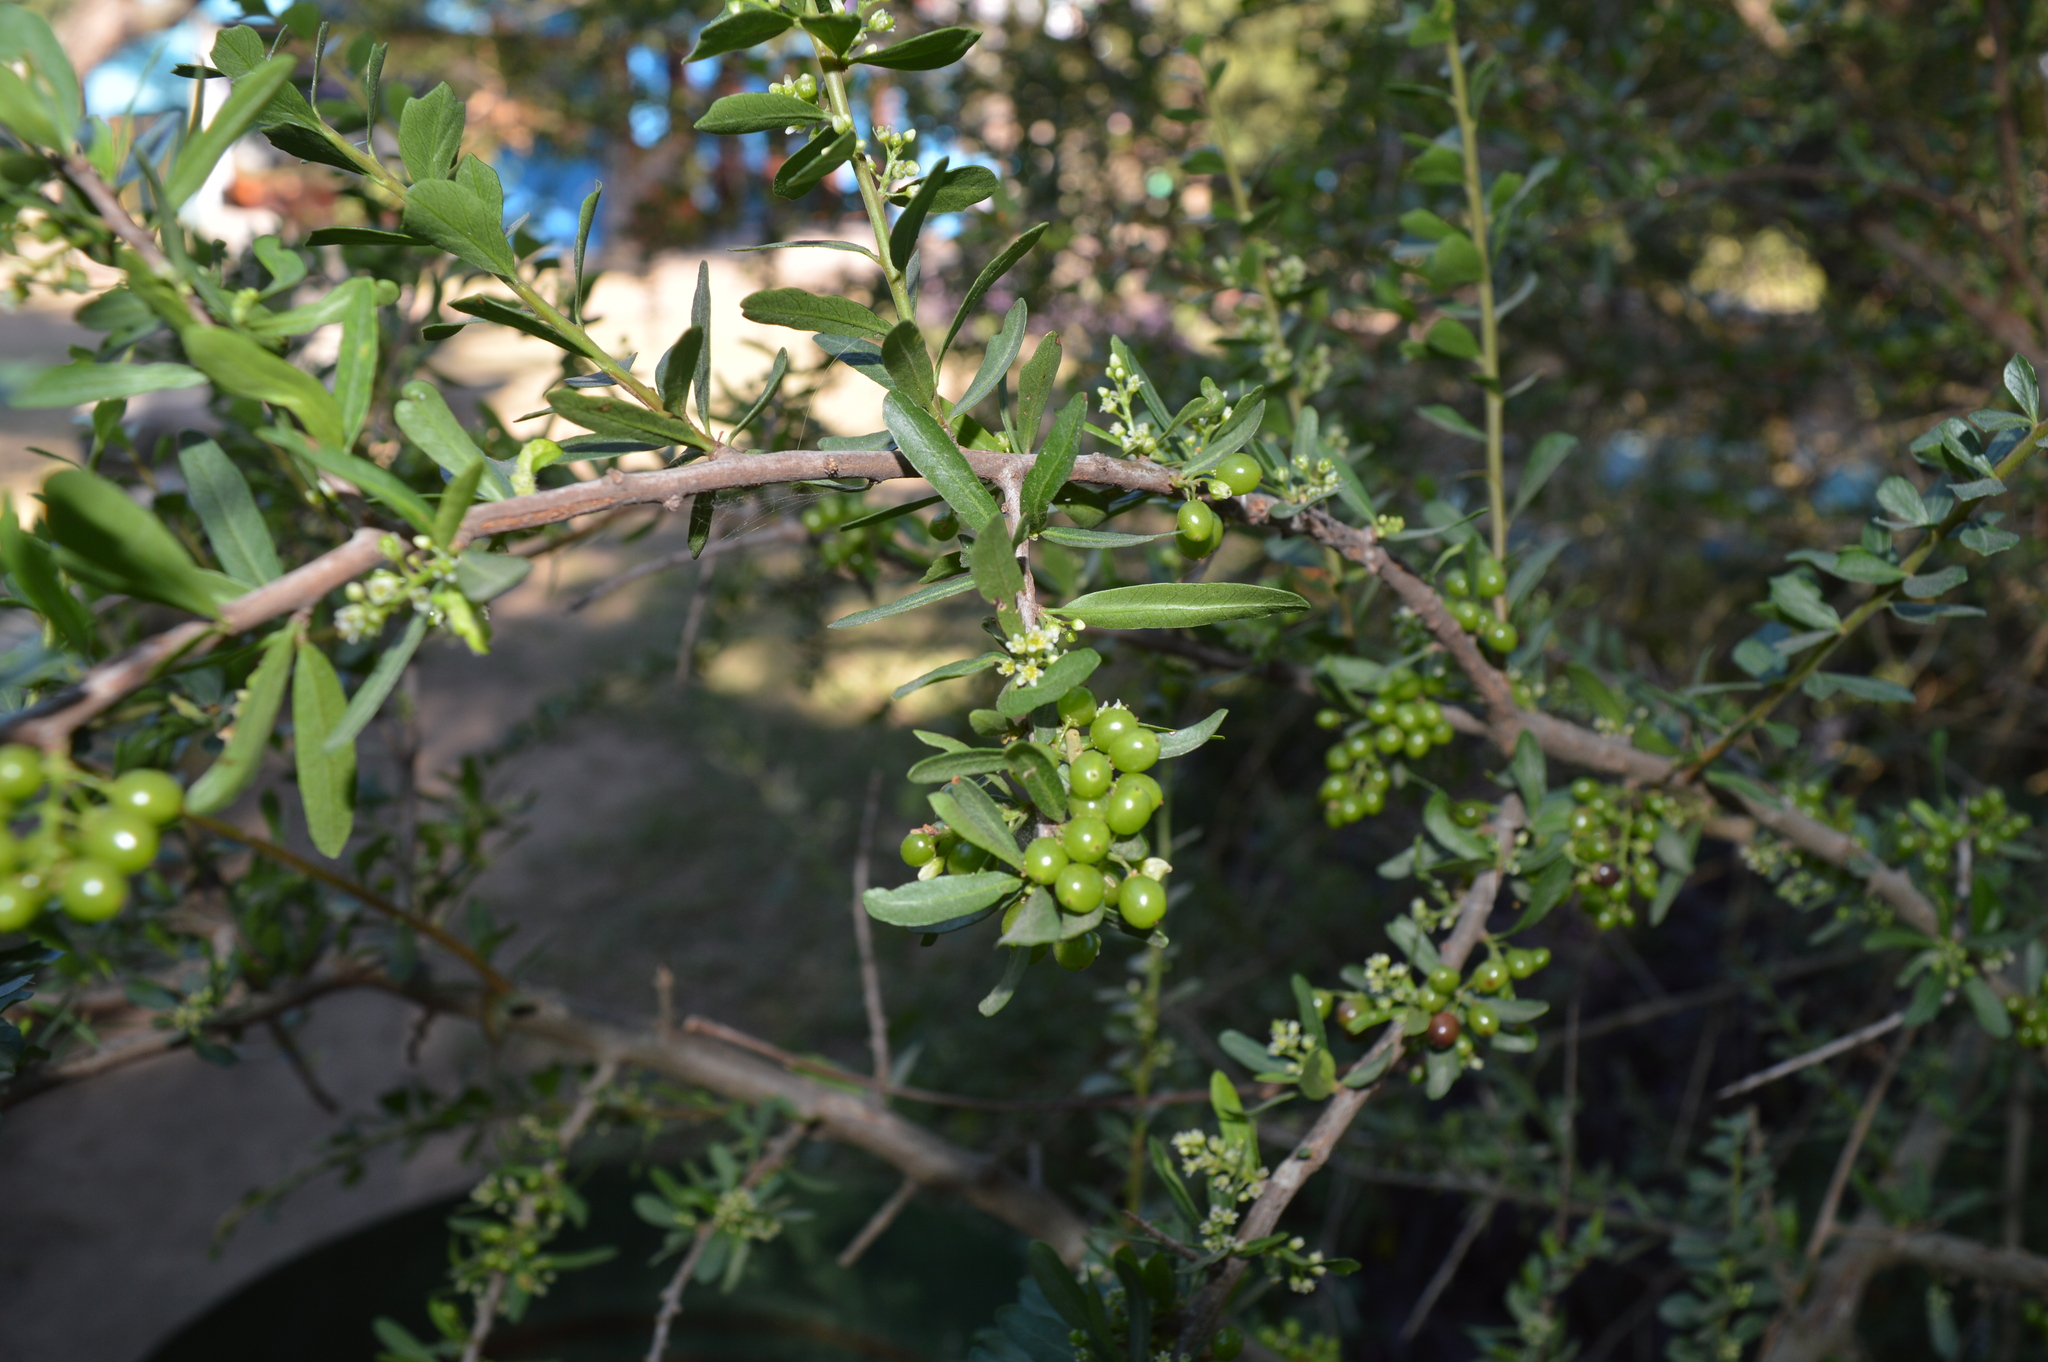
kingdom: Plantae
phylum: Tracheophyta
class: Magnoliopsida
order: Sapindales
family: Anacardiaceae
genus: Schinus
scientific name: Schinus fasciculata
